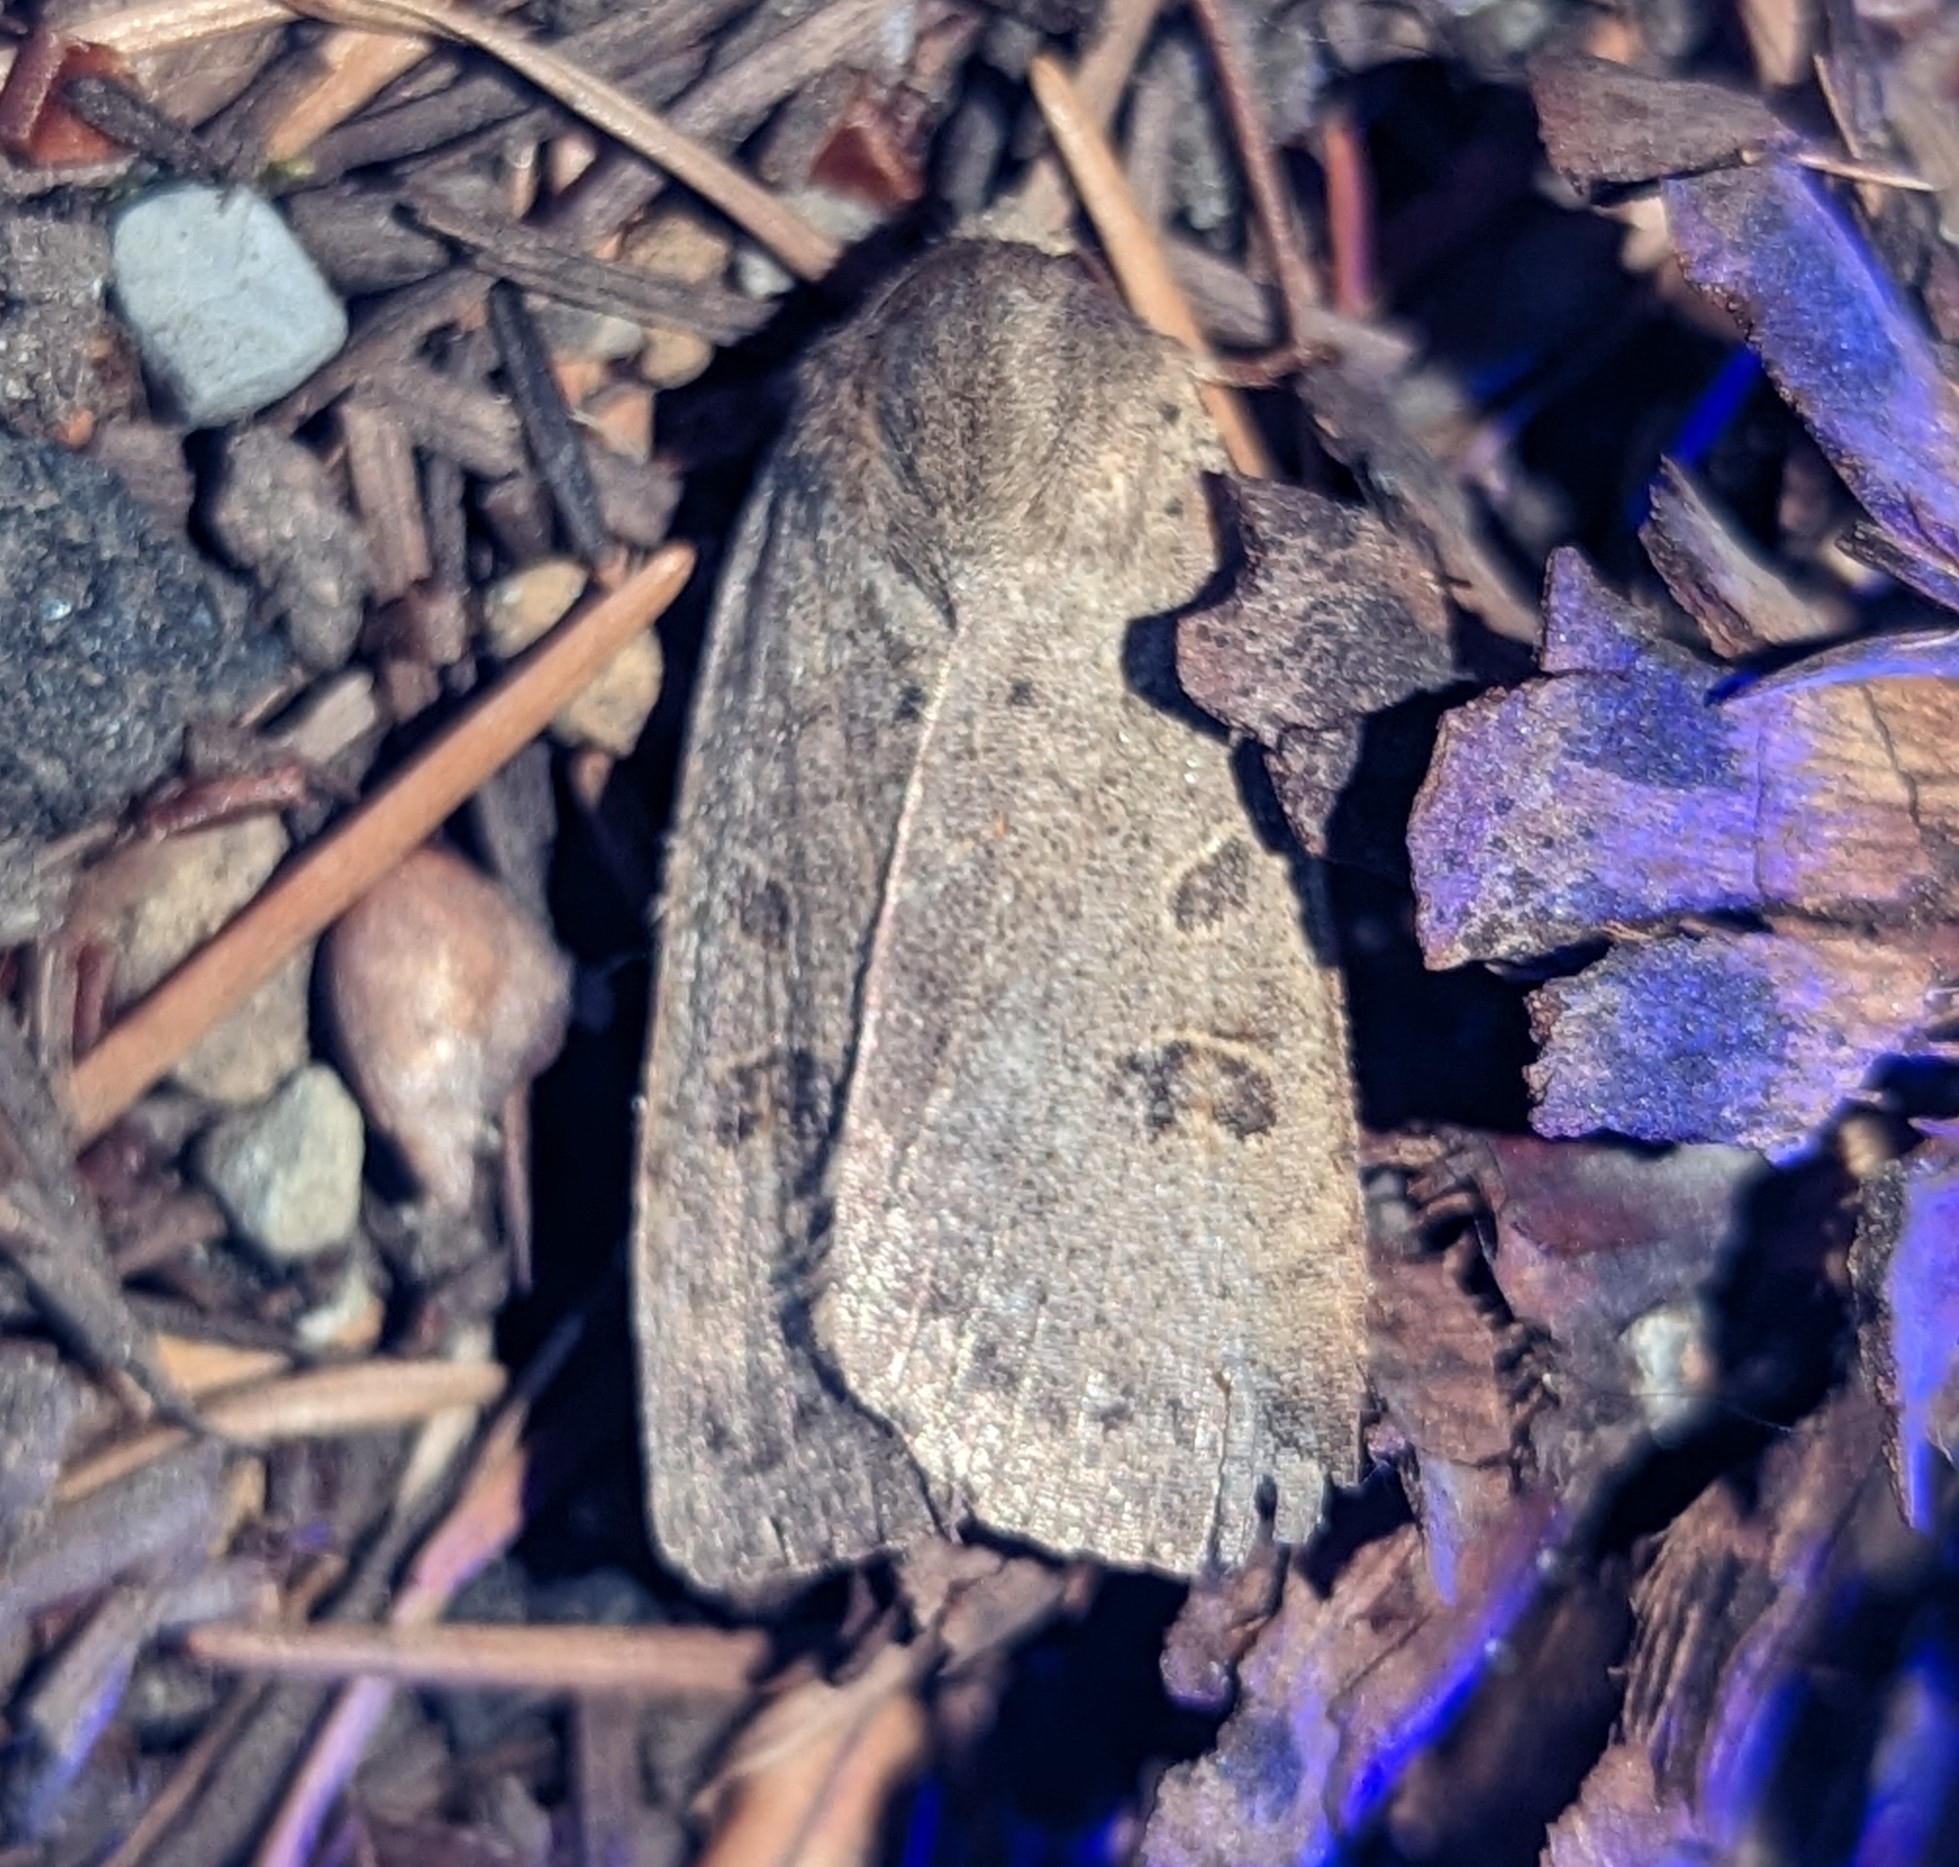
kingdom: Animalia
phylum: Arthropoda
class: Insecta
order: Lepidoptera
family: Noctuidae
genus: Noctua
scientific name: Noctua comes
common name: Lesser yellow underwing
